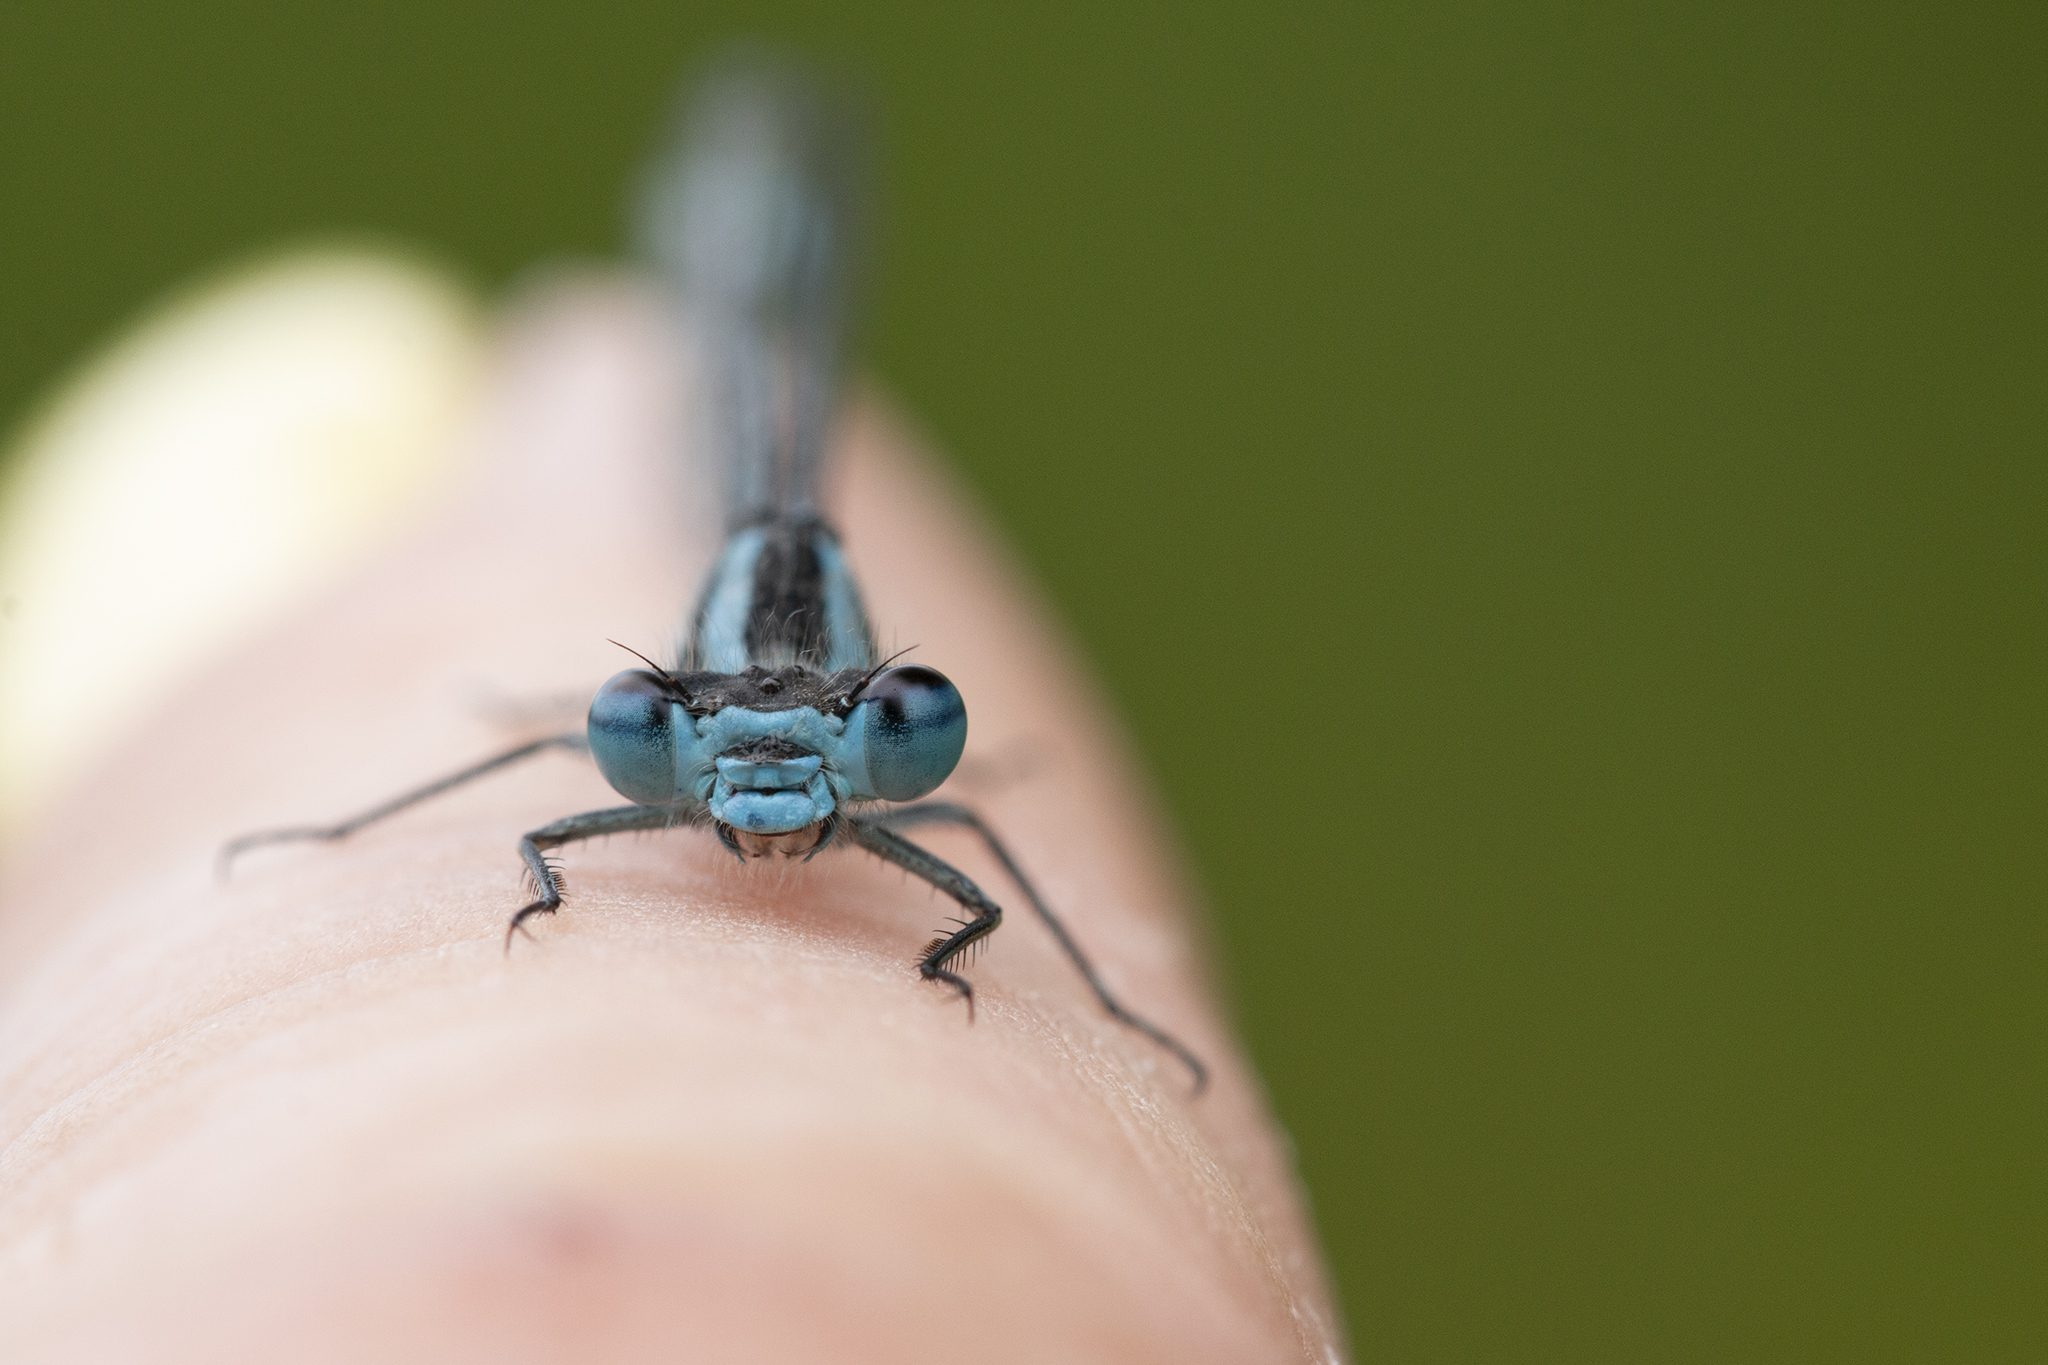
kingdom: Animalia
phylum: Arthropoda
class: Insecta
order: Odonata
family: Coenagrionidae
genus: Enallagma
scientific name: Enallagma cyathigerum
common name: Common blue damselfly
